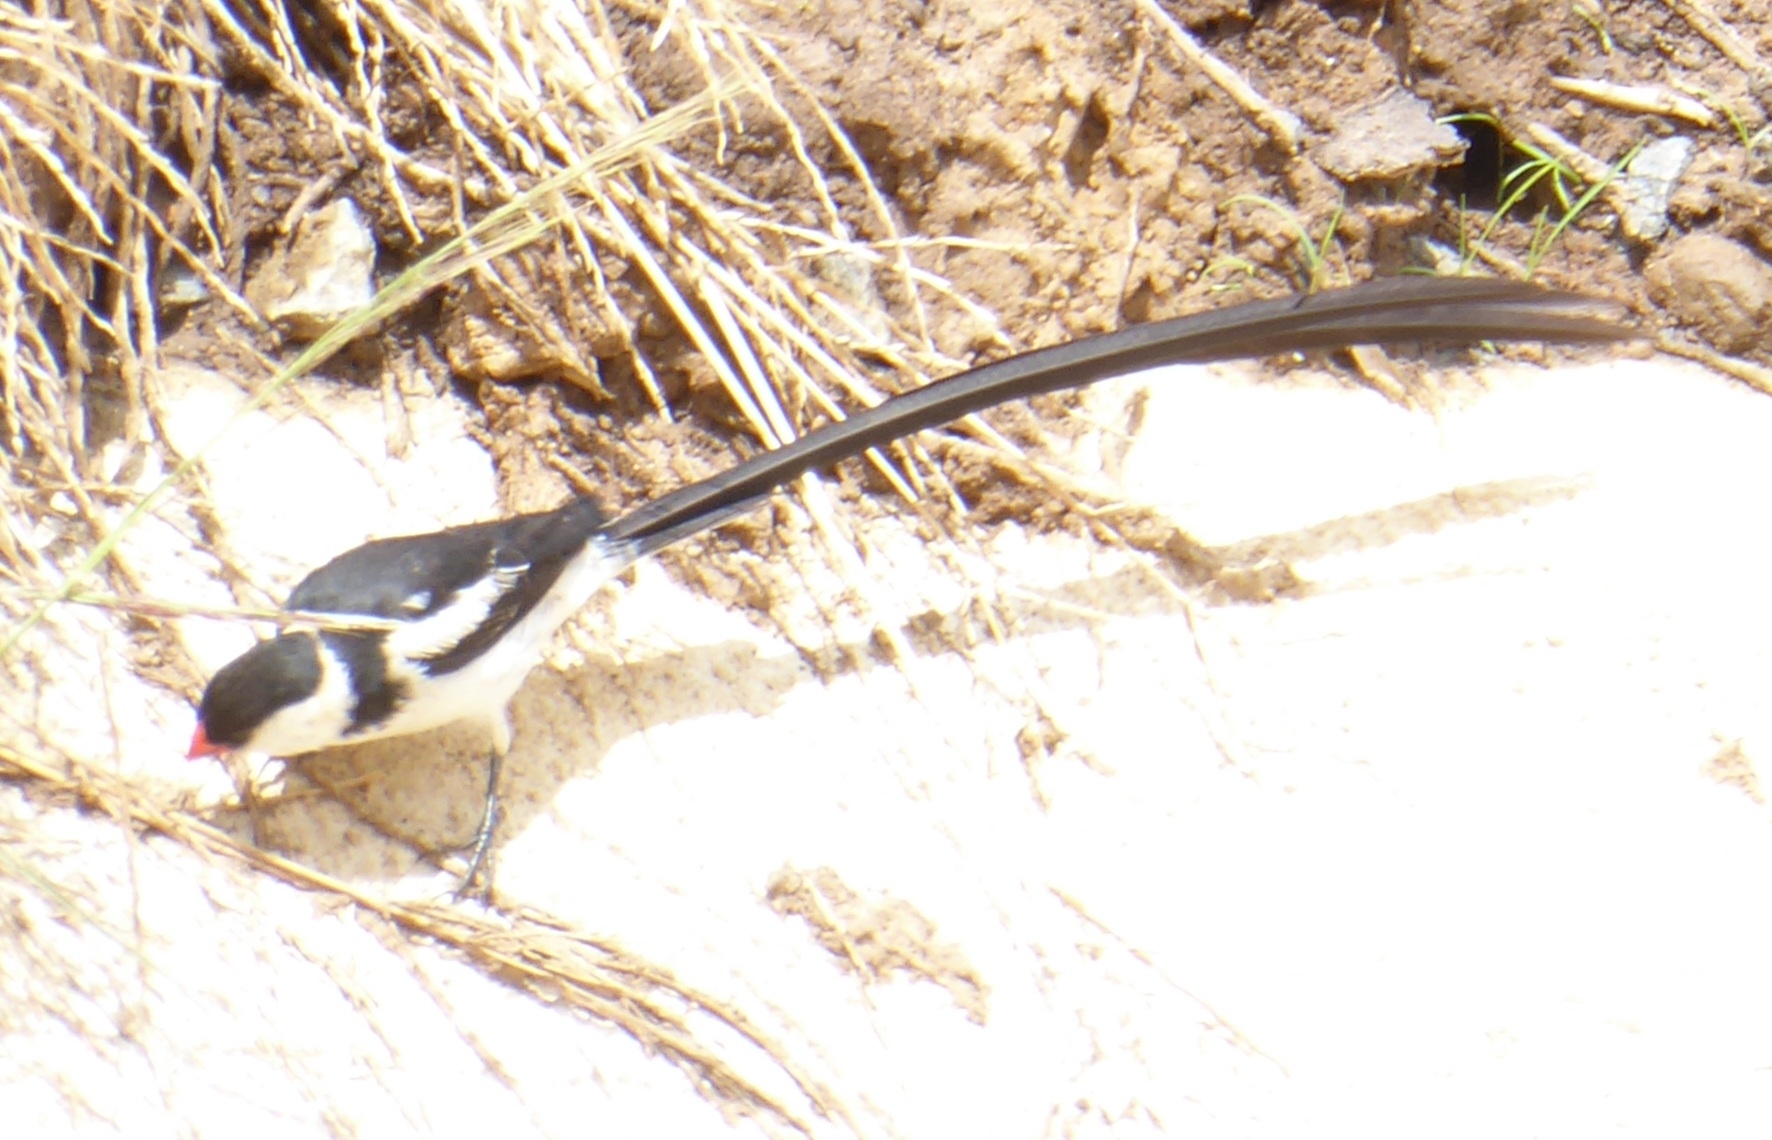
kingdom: Animalia
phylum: Chordata
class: Aves
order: Passeriformes
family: Viduidae
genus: Vidua
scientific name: Vidua macroura
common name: Pin-tailed whydah
